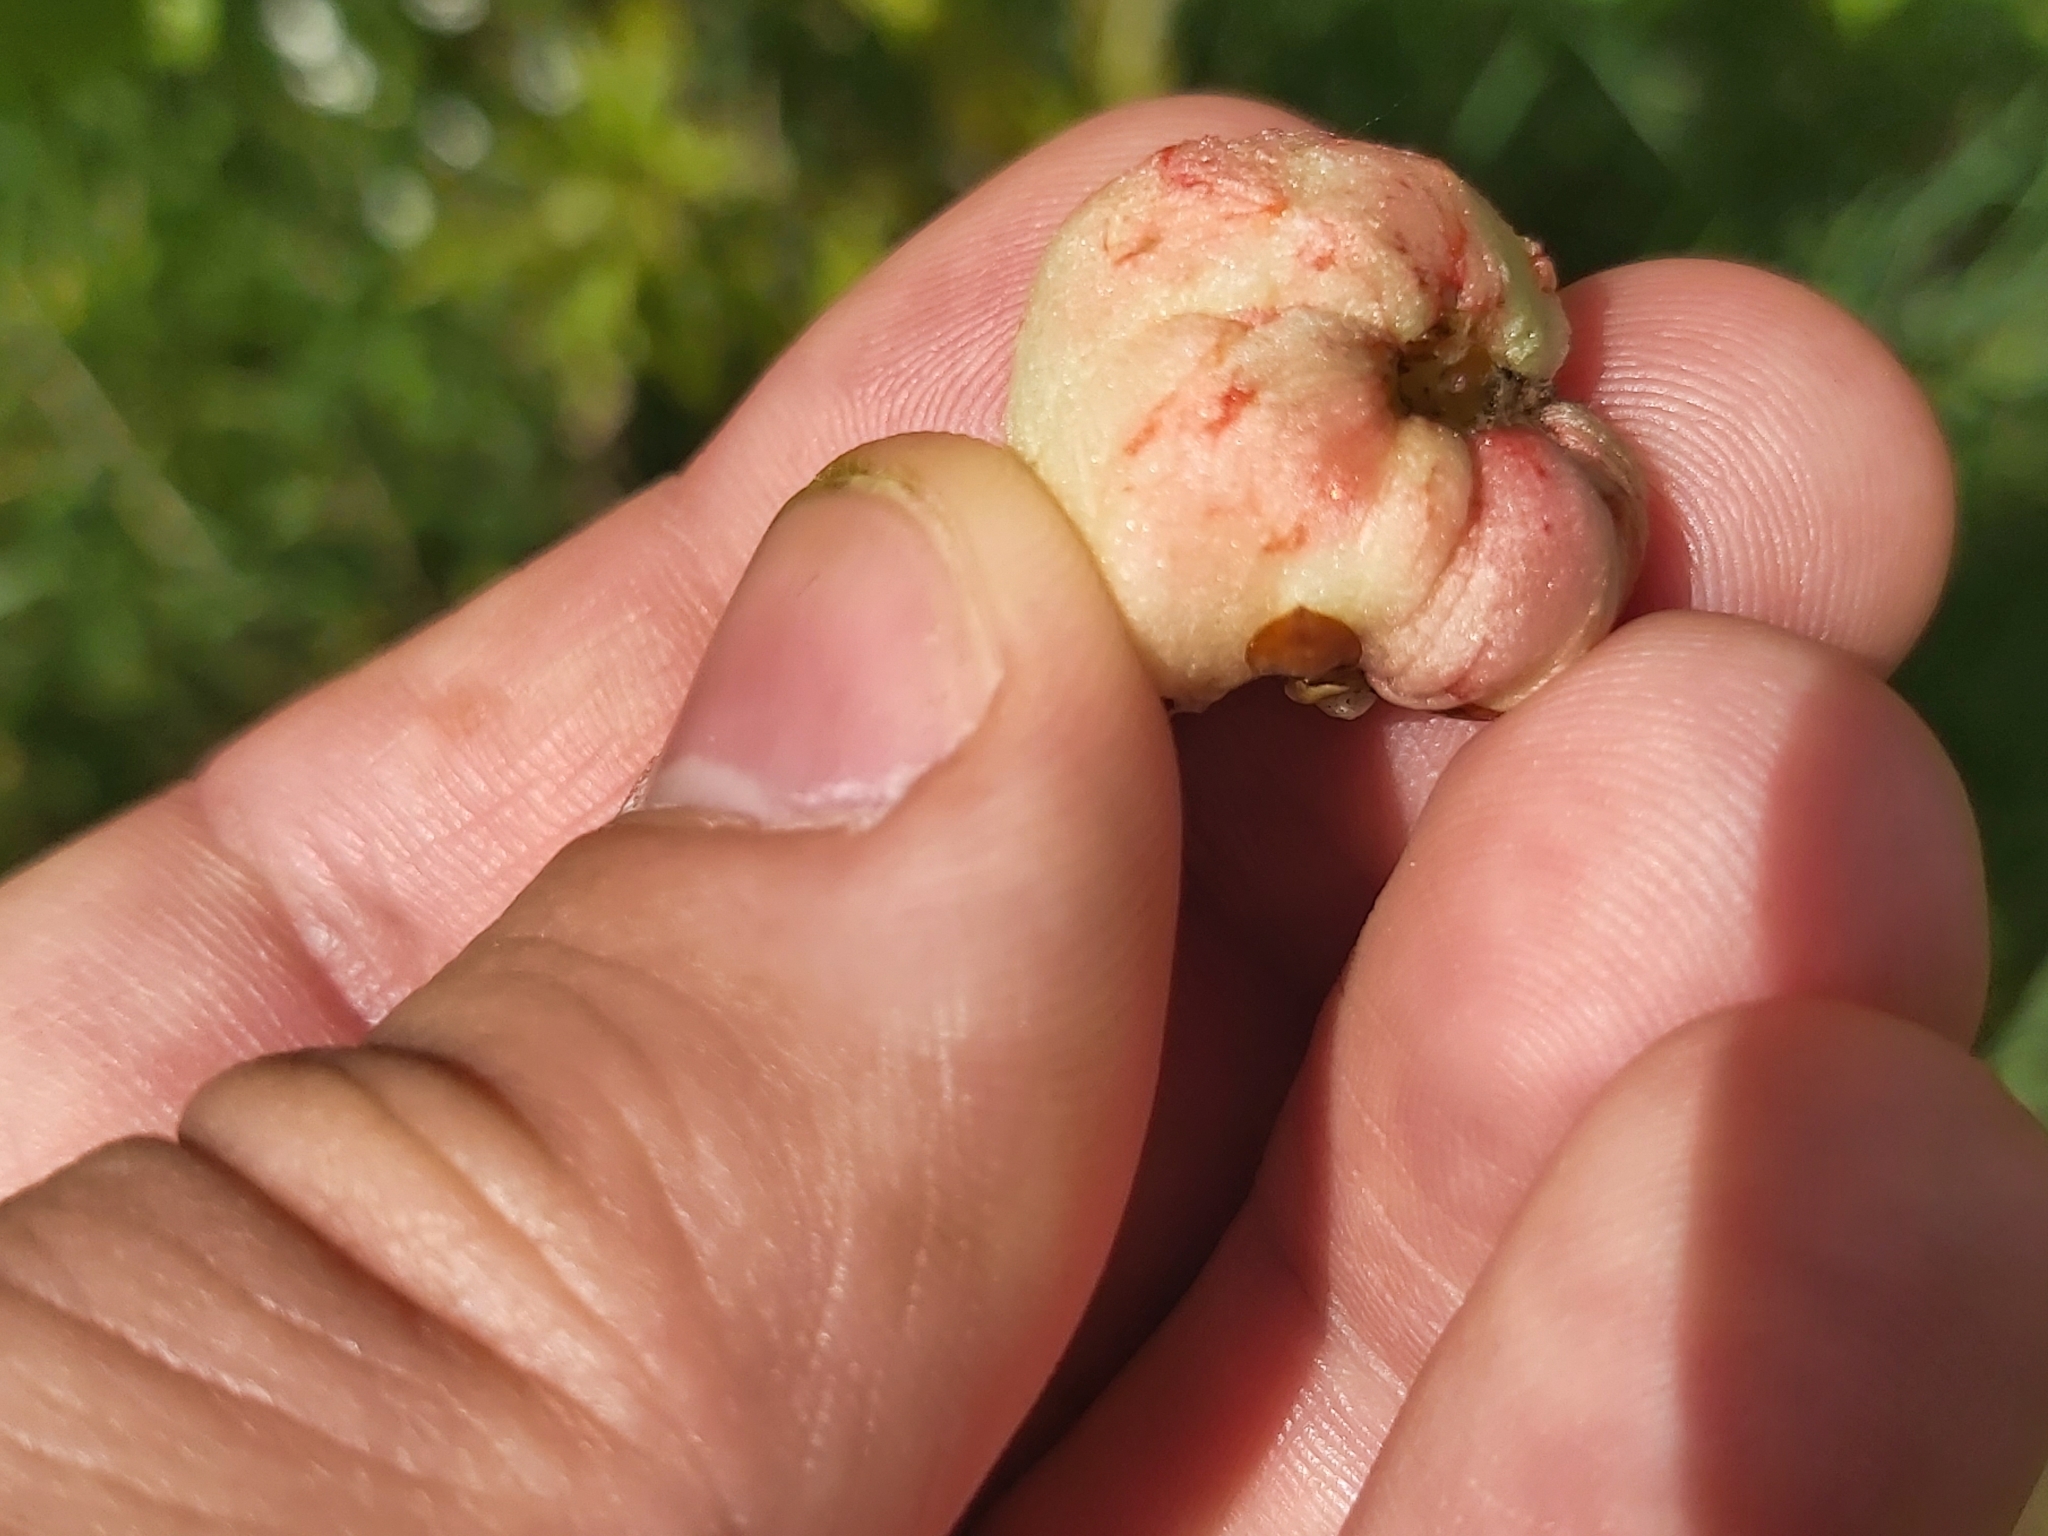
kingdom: Animalia
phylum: Arthropoda
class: Insecta
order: Hymenoptera
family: Cynipidae
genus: Biorhiza
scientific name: Biorhiza pallida
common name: Oak apple
